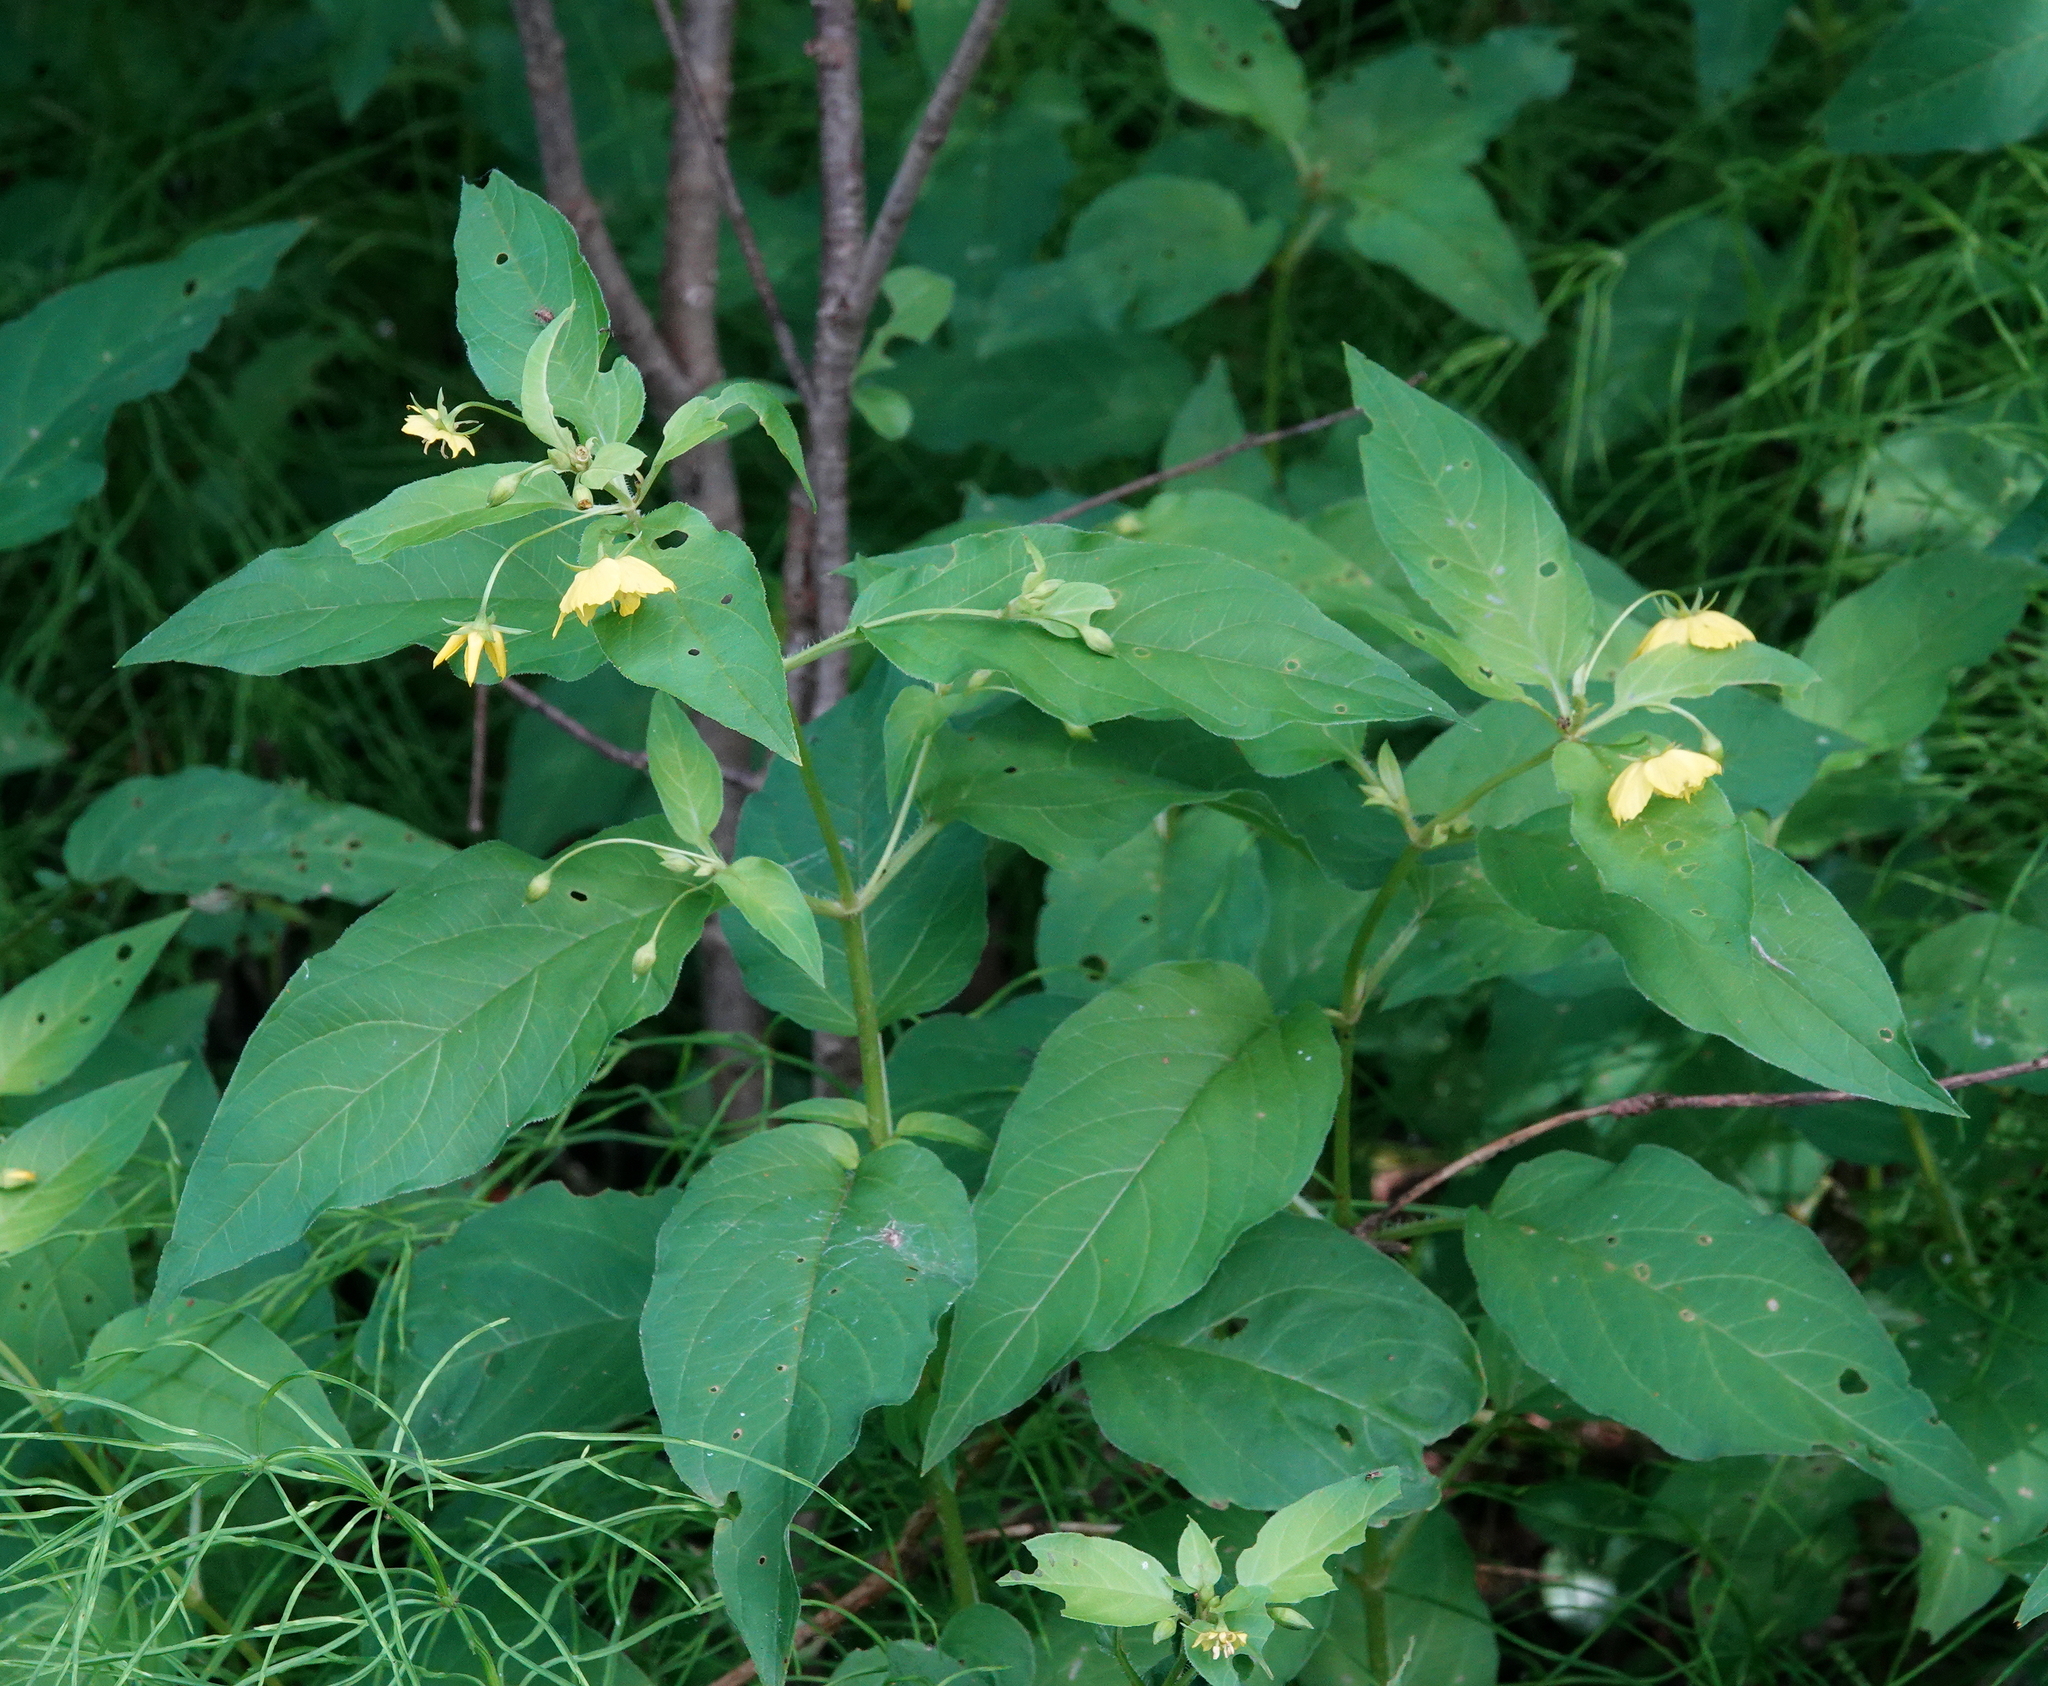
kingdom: Plantae
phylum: Tracheophyta
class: Magnoliopsida
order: Ericales
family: Primulaceae
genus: Lysimachia
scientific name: Lysimachia ciliata
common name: Fringed loosestrife
